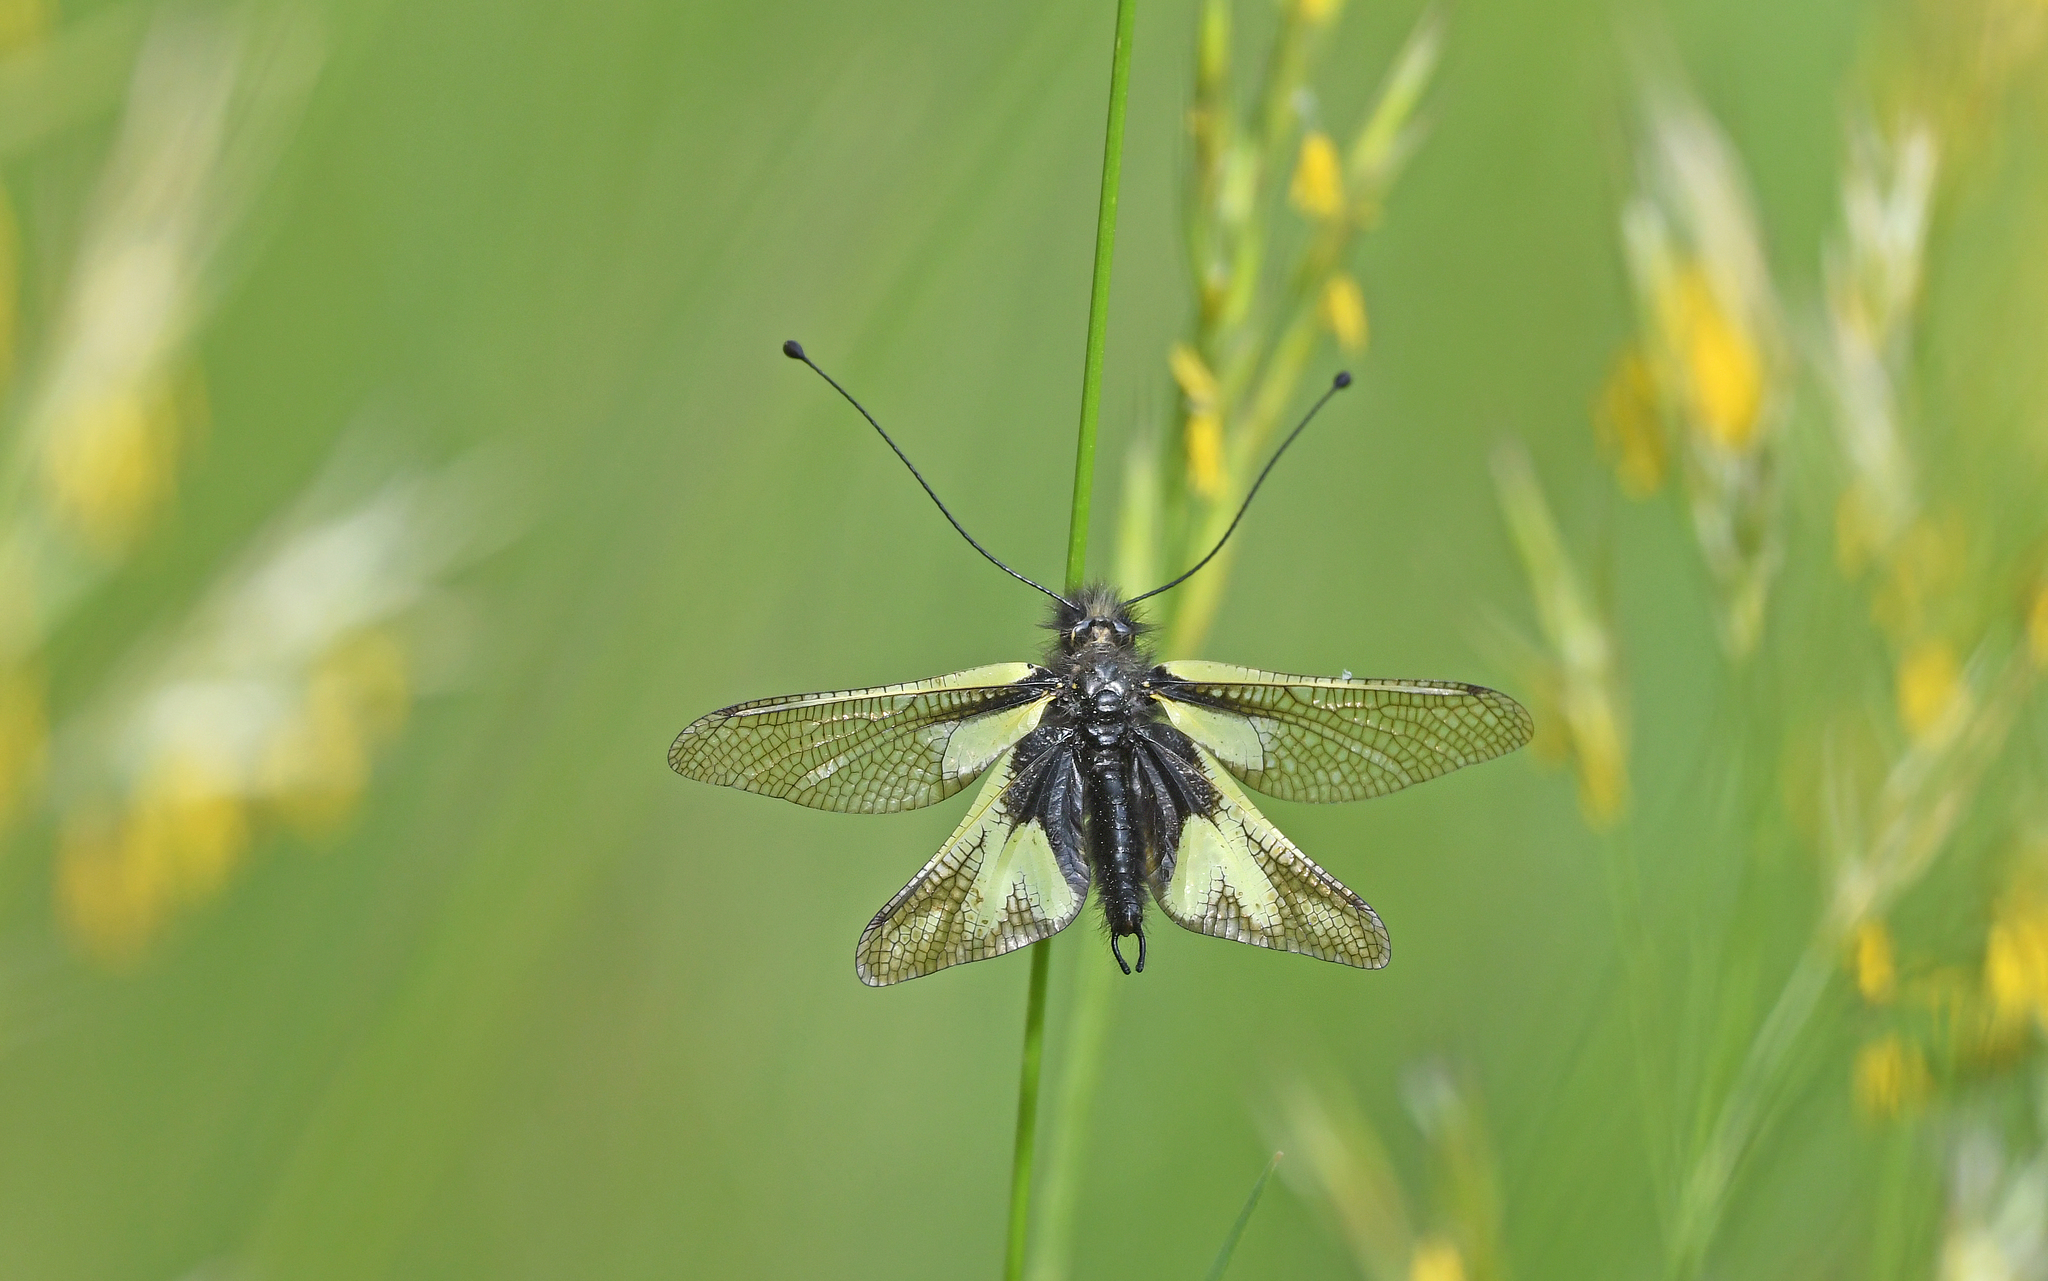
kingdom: Animalia
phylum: Arthropoda
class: Insecta
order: Neuroptera
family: Ascalaphidae
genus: Libelloides
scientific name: Libelloides coccajus
